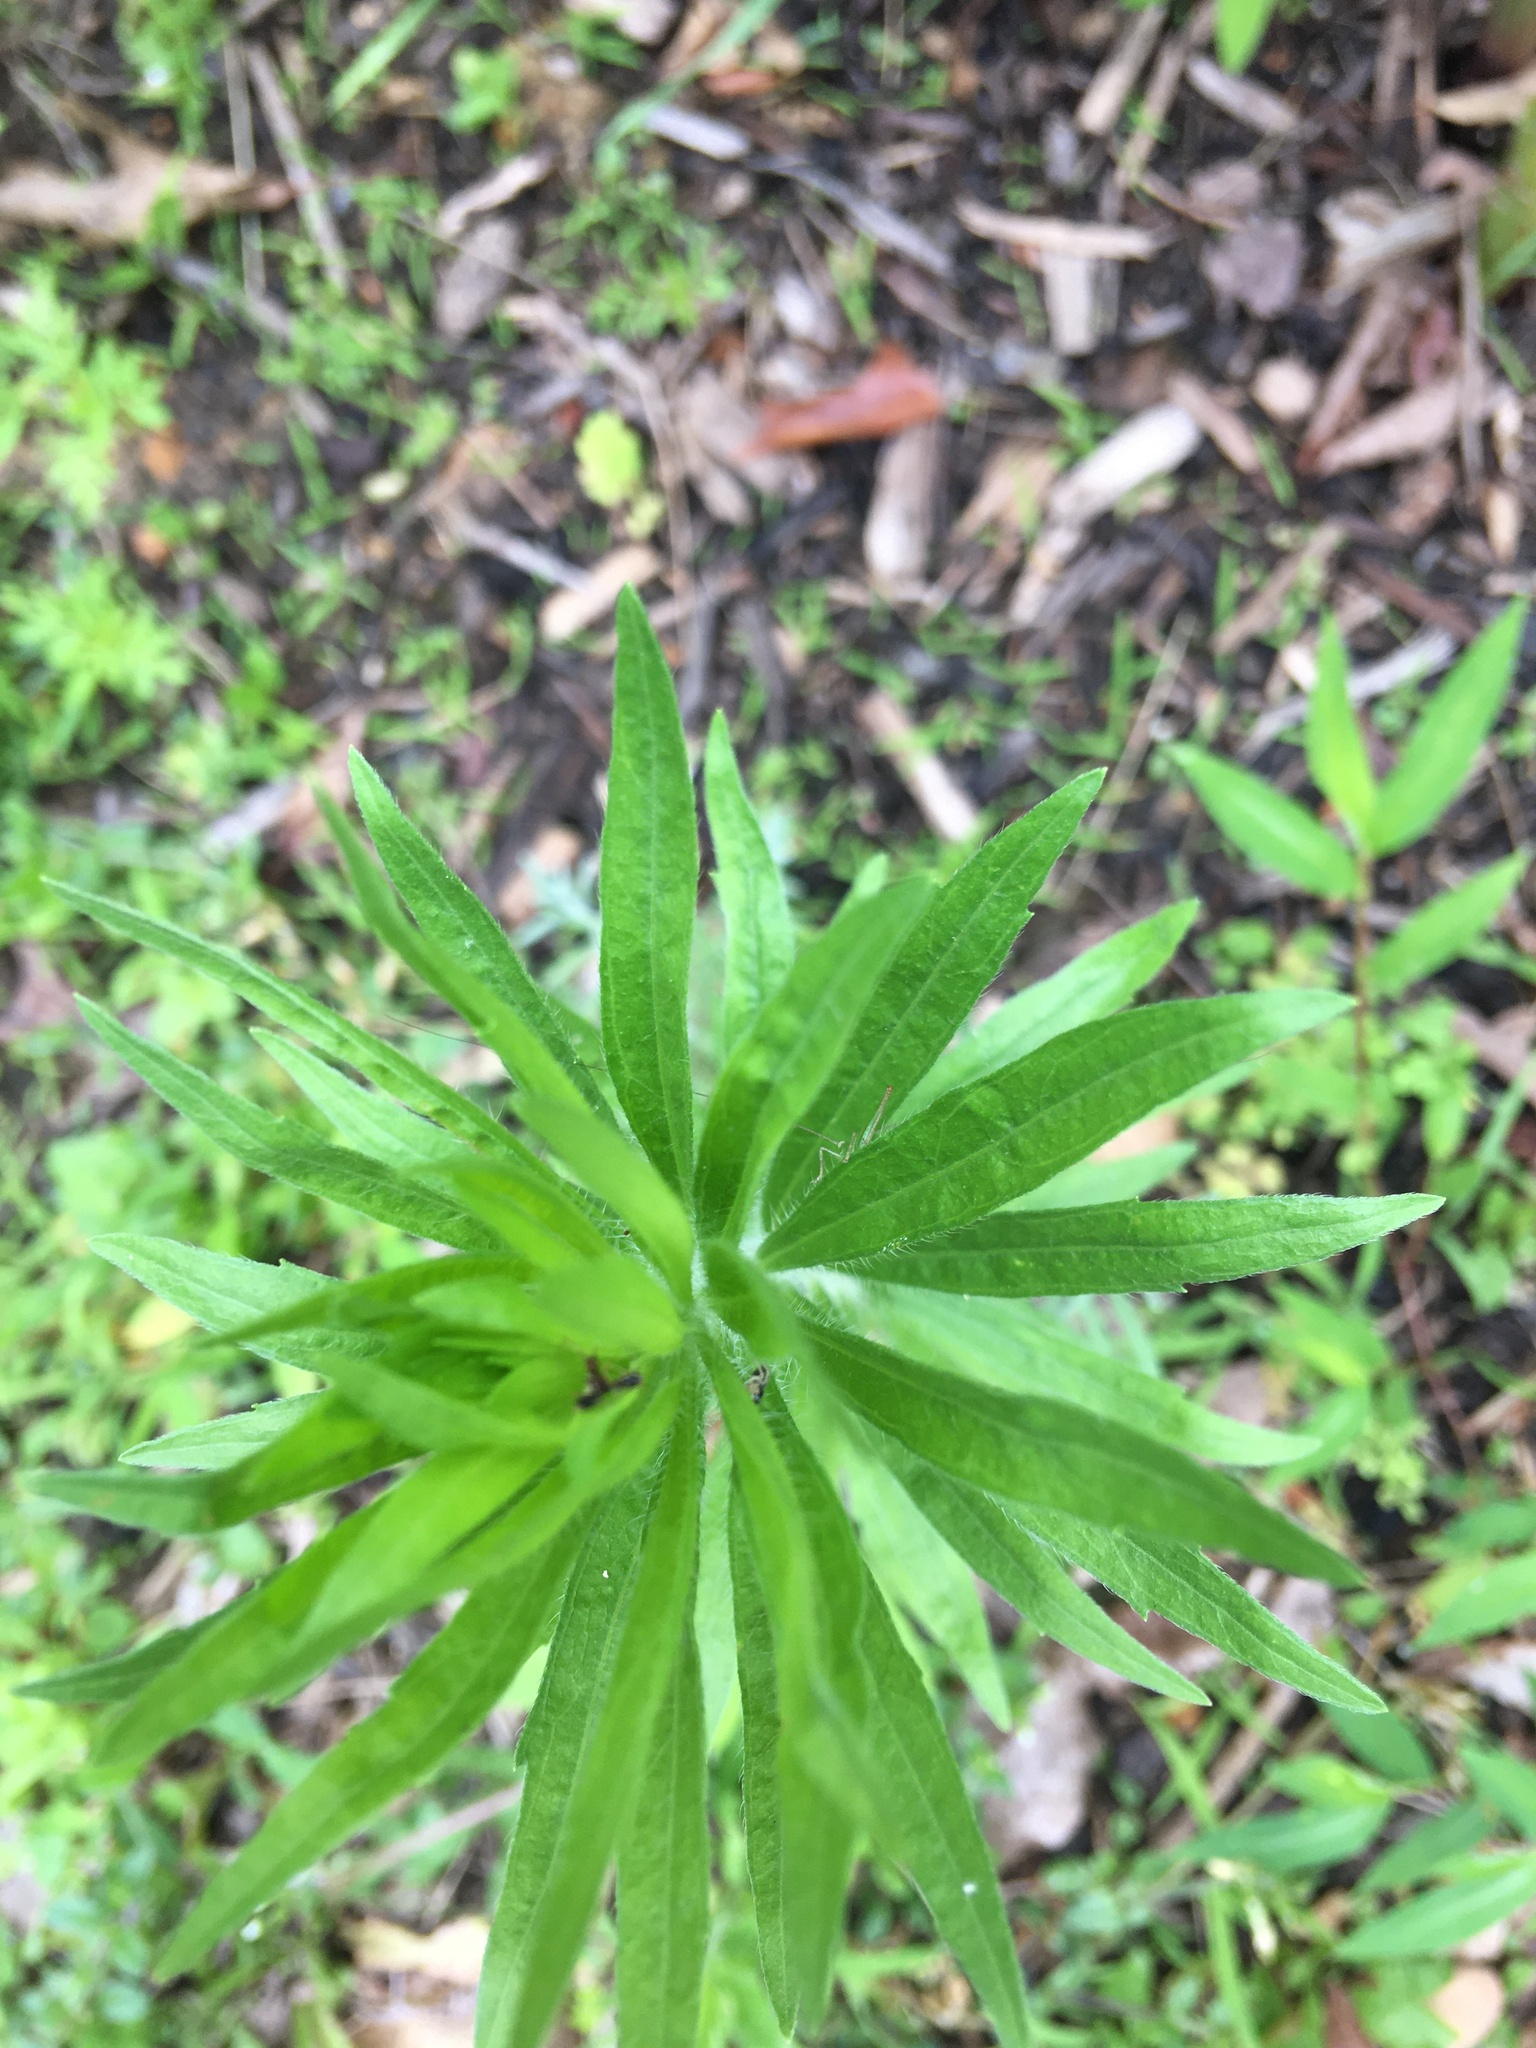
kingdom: Plantae
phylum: Tracheophyta
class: Magnoliopsida
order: Asterales
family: Asteraceae
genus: Erigeron
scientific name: Erigeron canadensis
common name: Canadian fleabane
